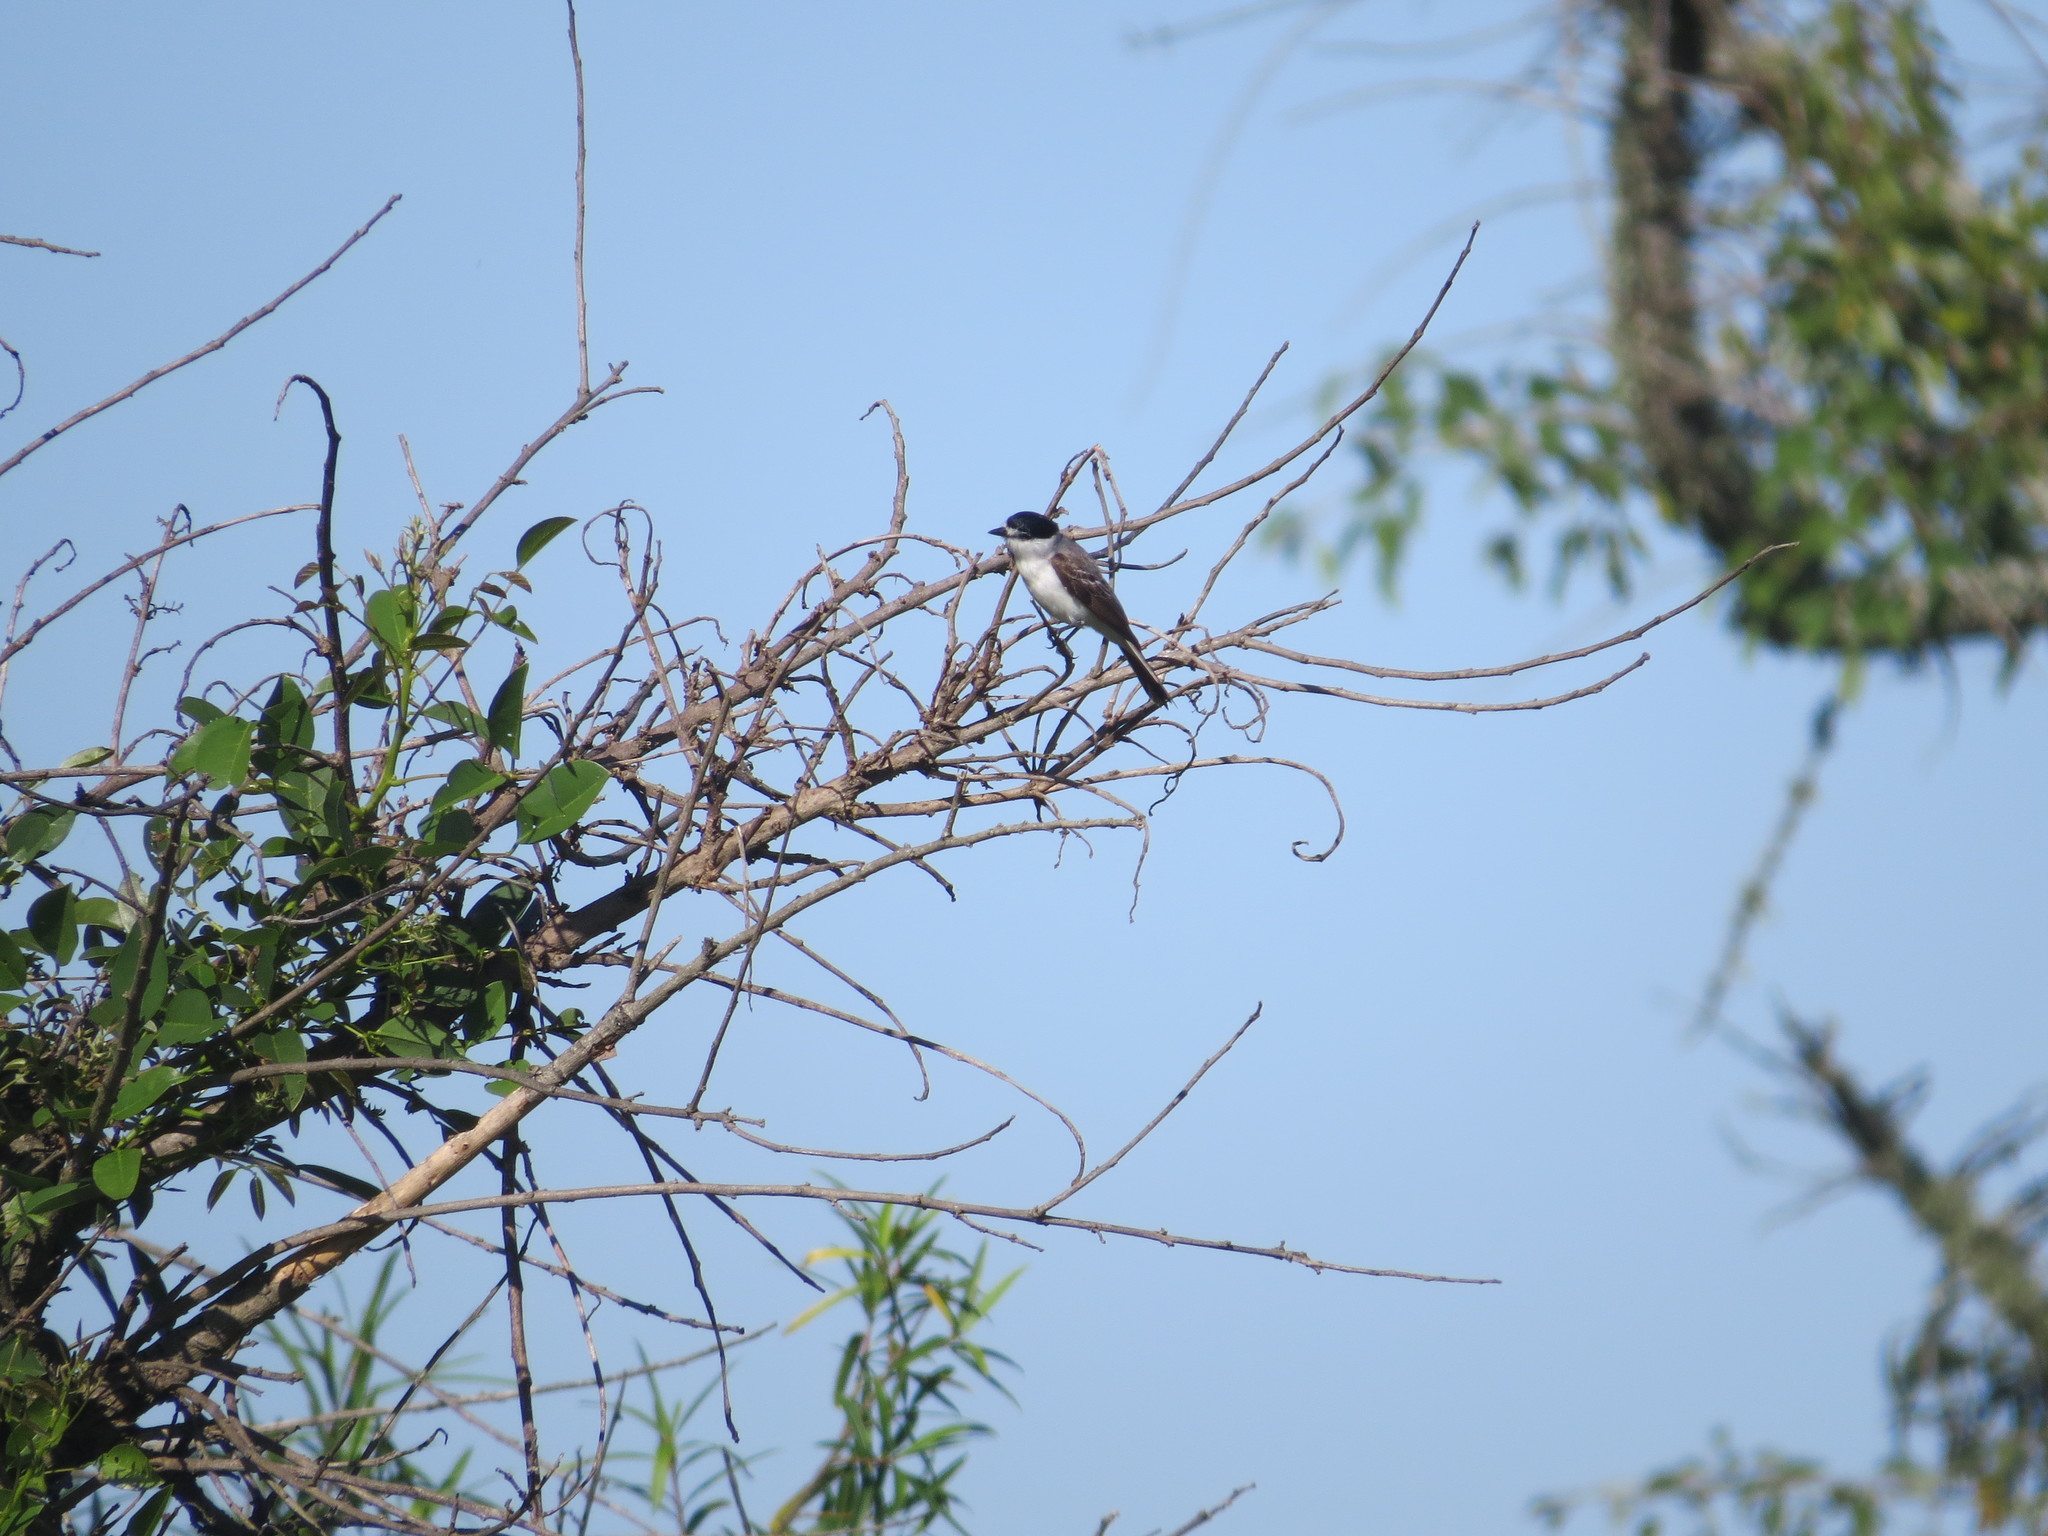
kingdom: Animalia
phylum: Chordata
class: Aves
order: Passeriformes
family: Cotingidae
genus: Xenopsaris
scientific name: Xenopsaris albinucha
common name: White-naped xenopsaris
